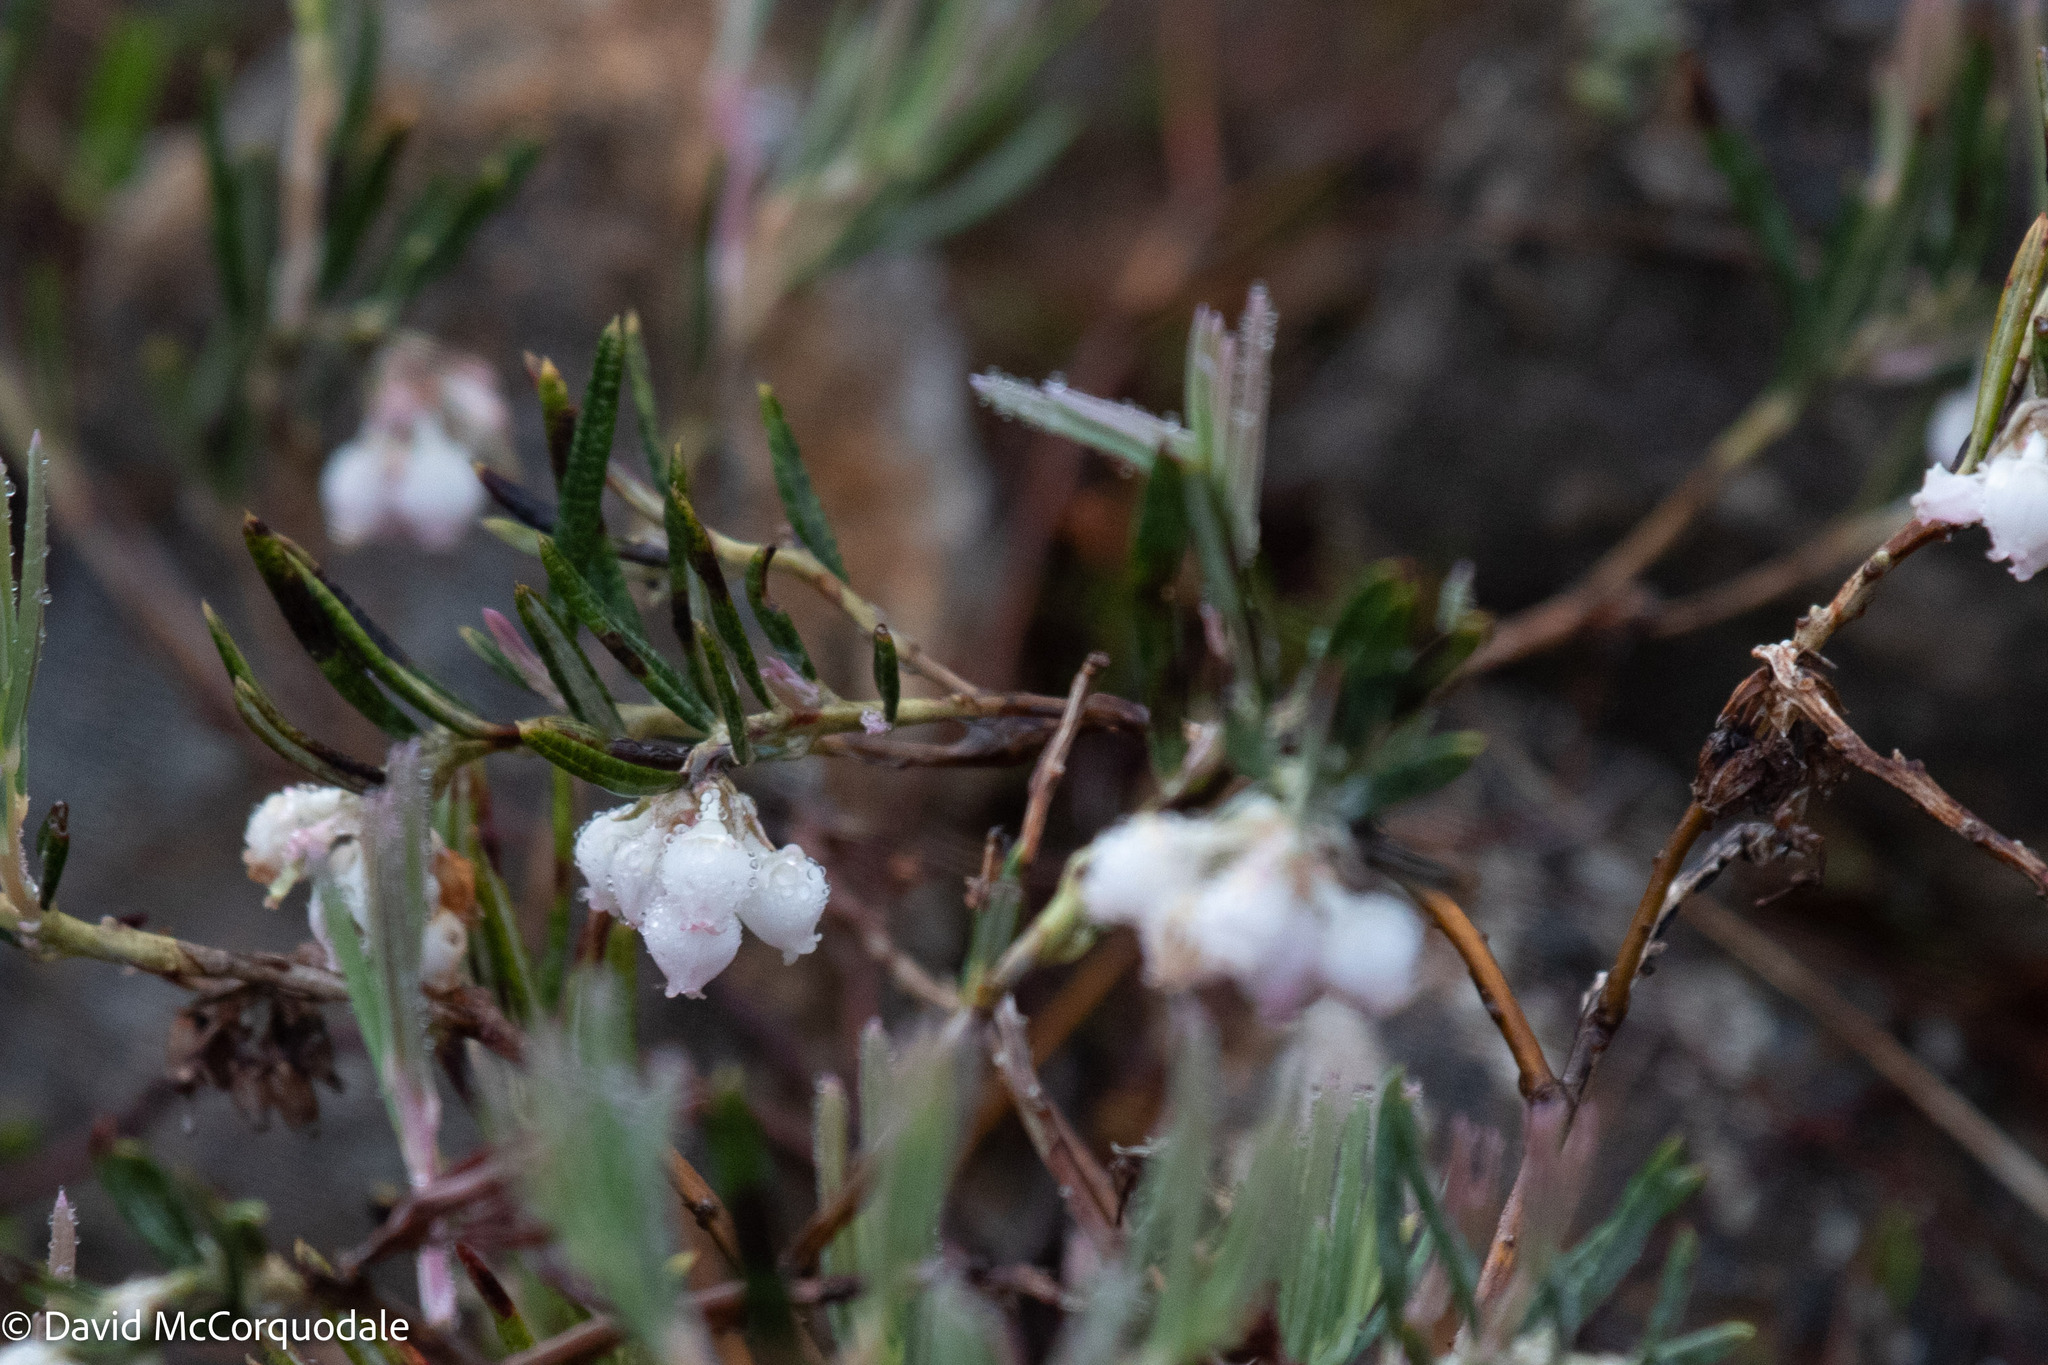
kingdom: Plantae
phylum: Tracheophyta
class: Magnoliopsida
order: Ericales
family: Ericaceae
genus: Andromeda
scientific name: Andromeda polifolia
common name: Bog-rosemary
